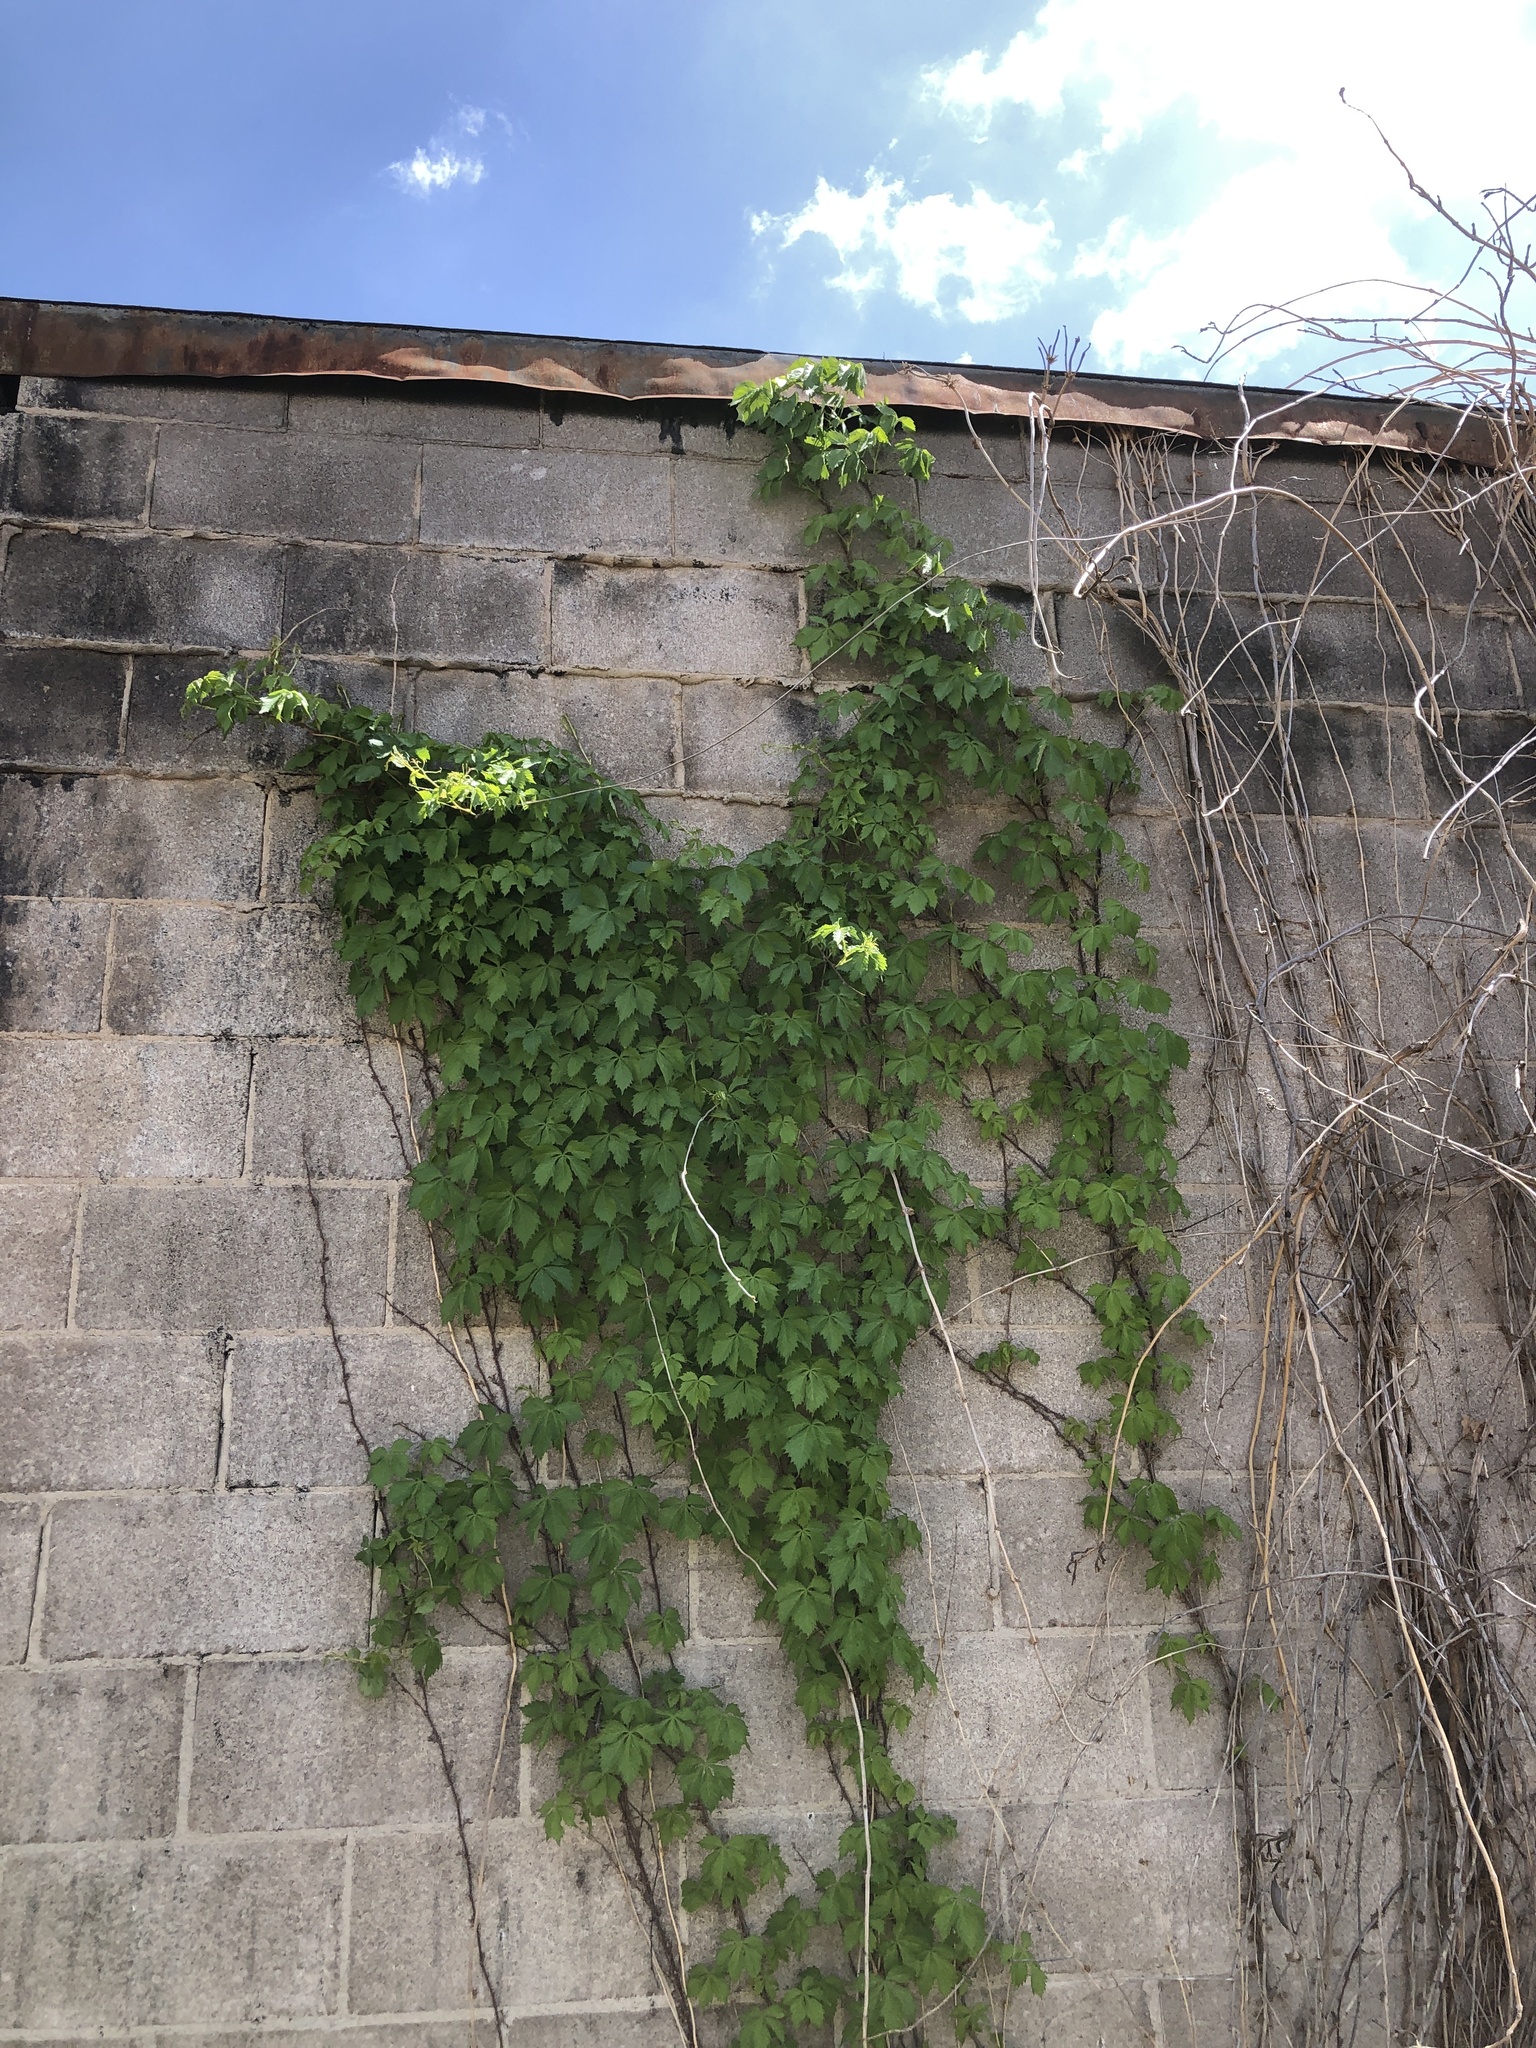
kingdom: Plantae
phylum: Tracheophyta
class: Magnoliopsida
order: Vitales
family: Vitaceae
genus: Parthenocissus
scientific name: Parthenocissus quinquefolia
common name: Virginia-creeper
